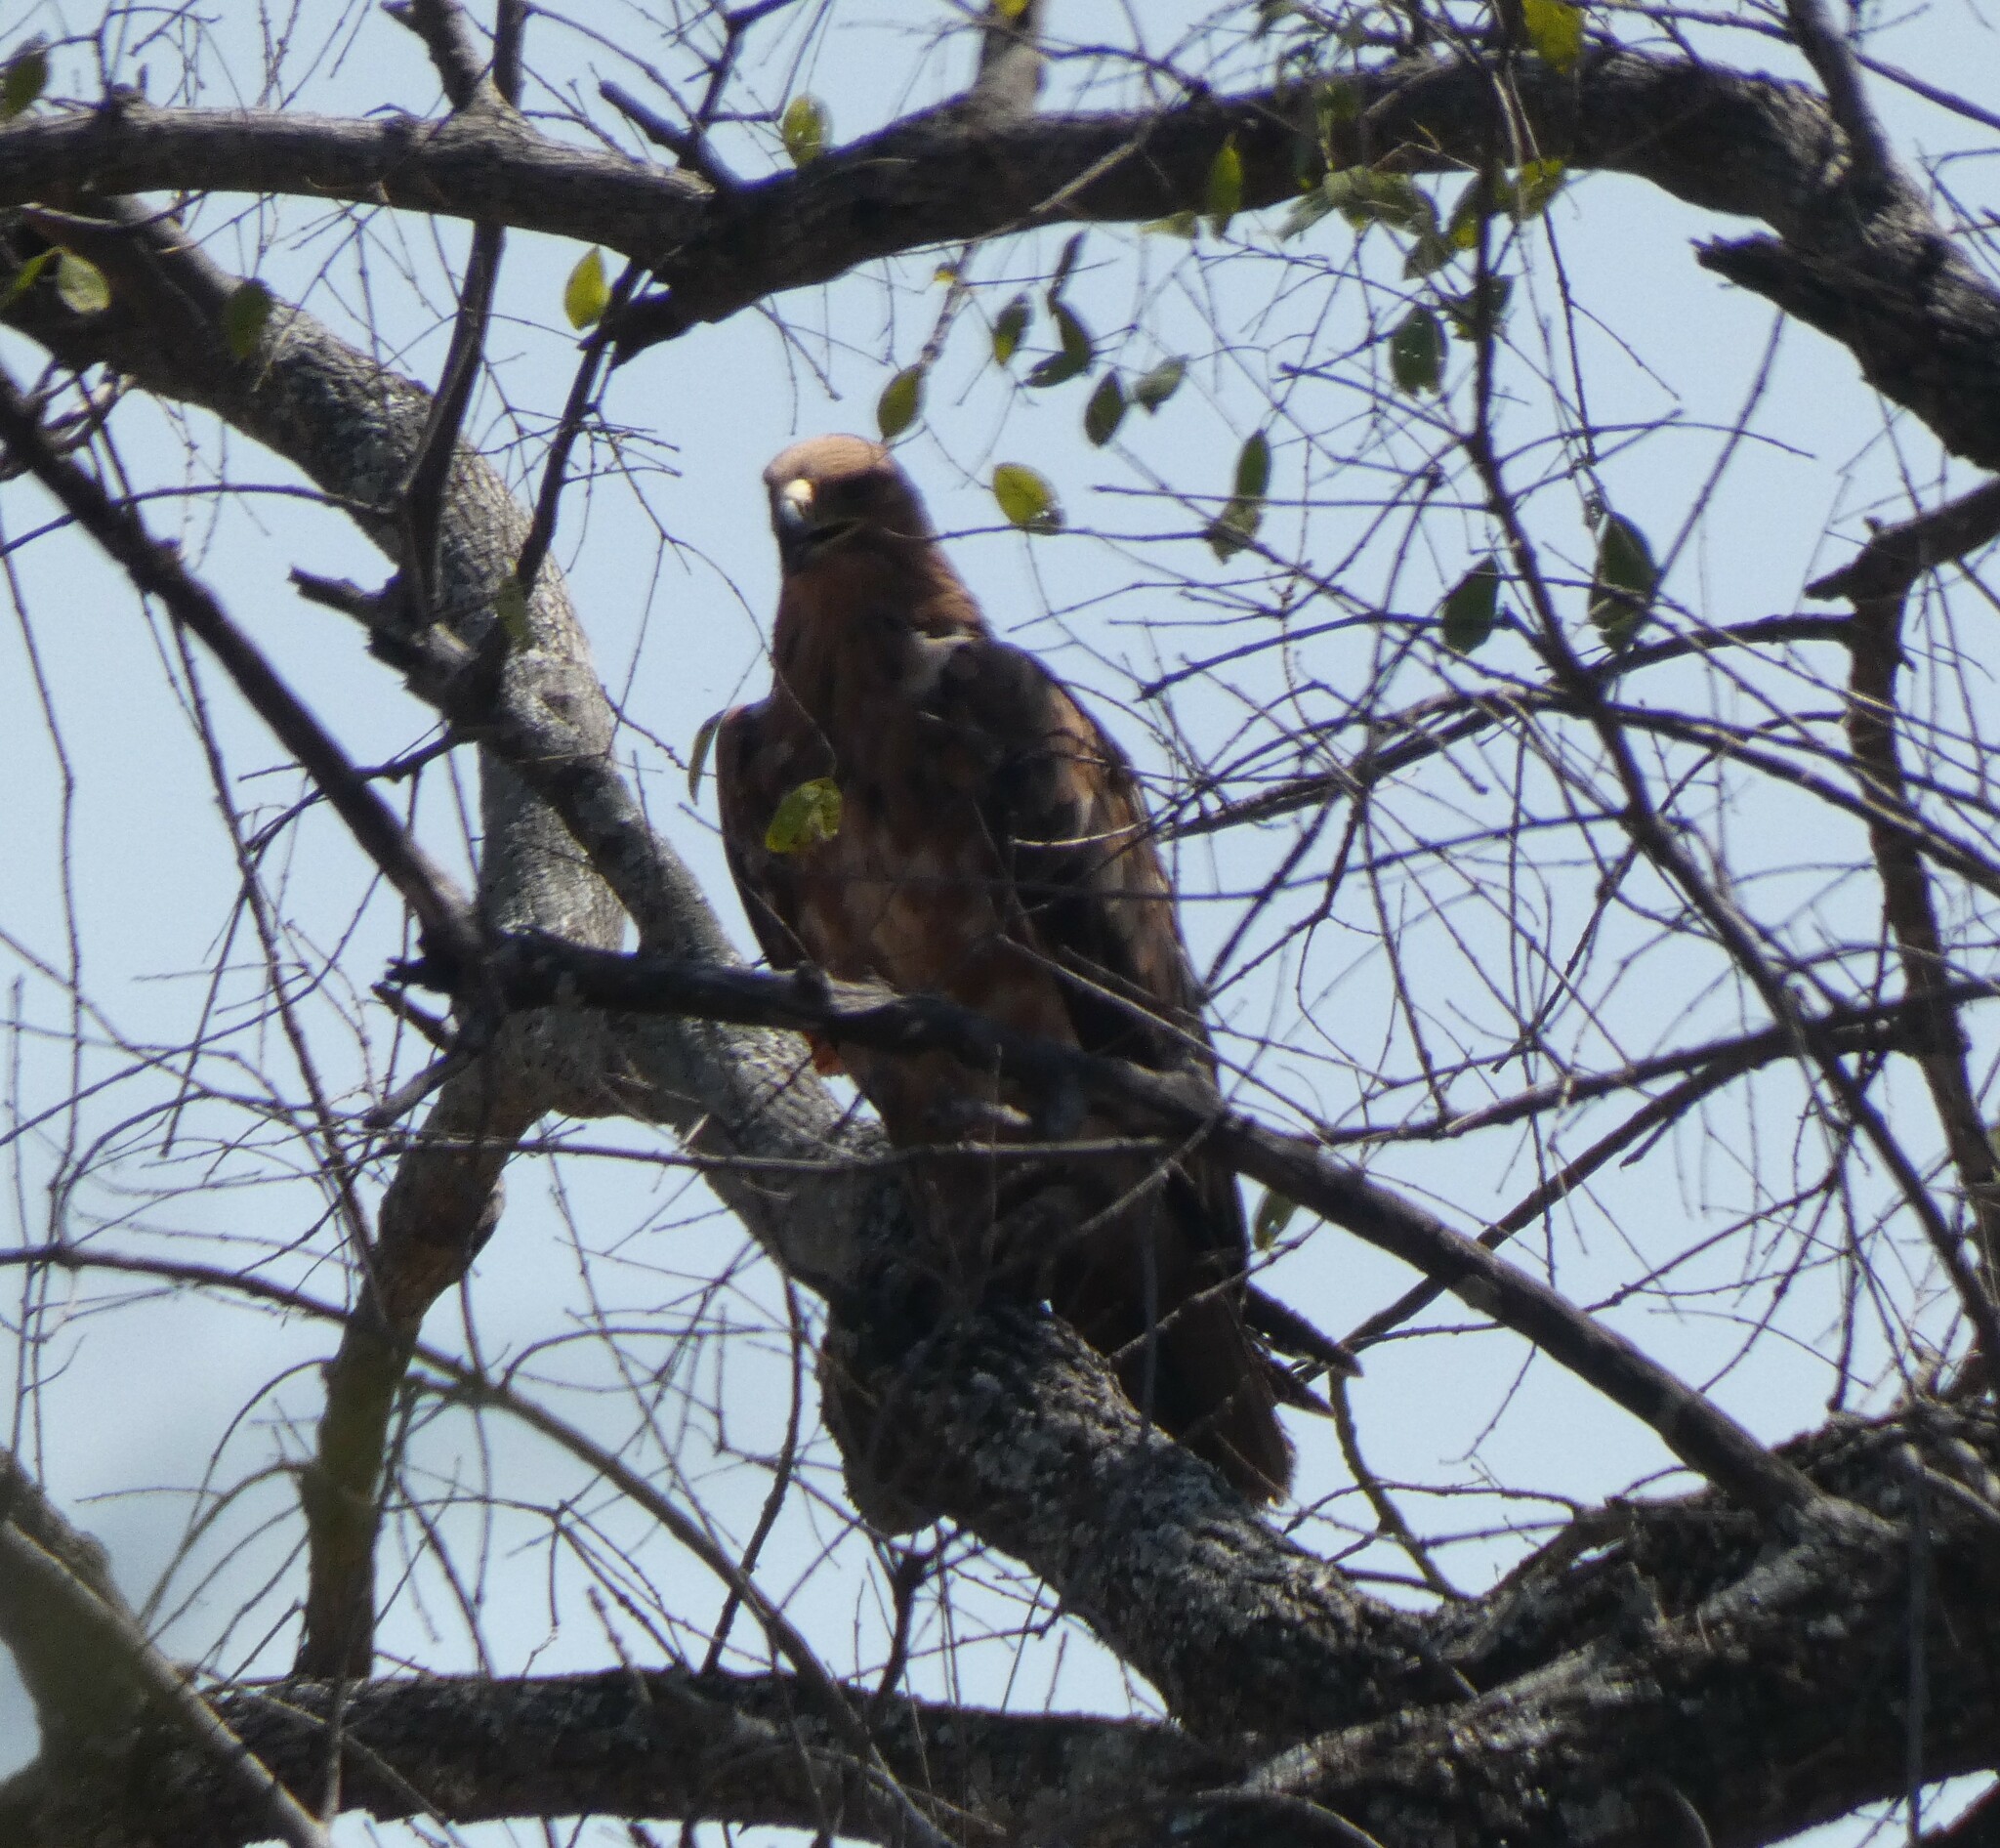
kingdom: Animalia
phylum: Chordata
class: Aves
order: Accipitriformes
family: Accipitridae
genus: Aquila
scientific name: Aquila rapax
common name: Tawny eagle
